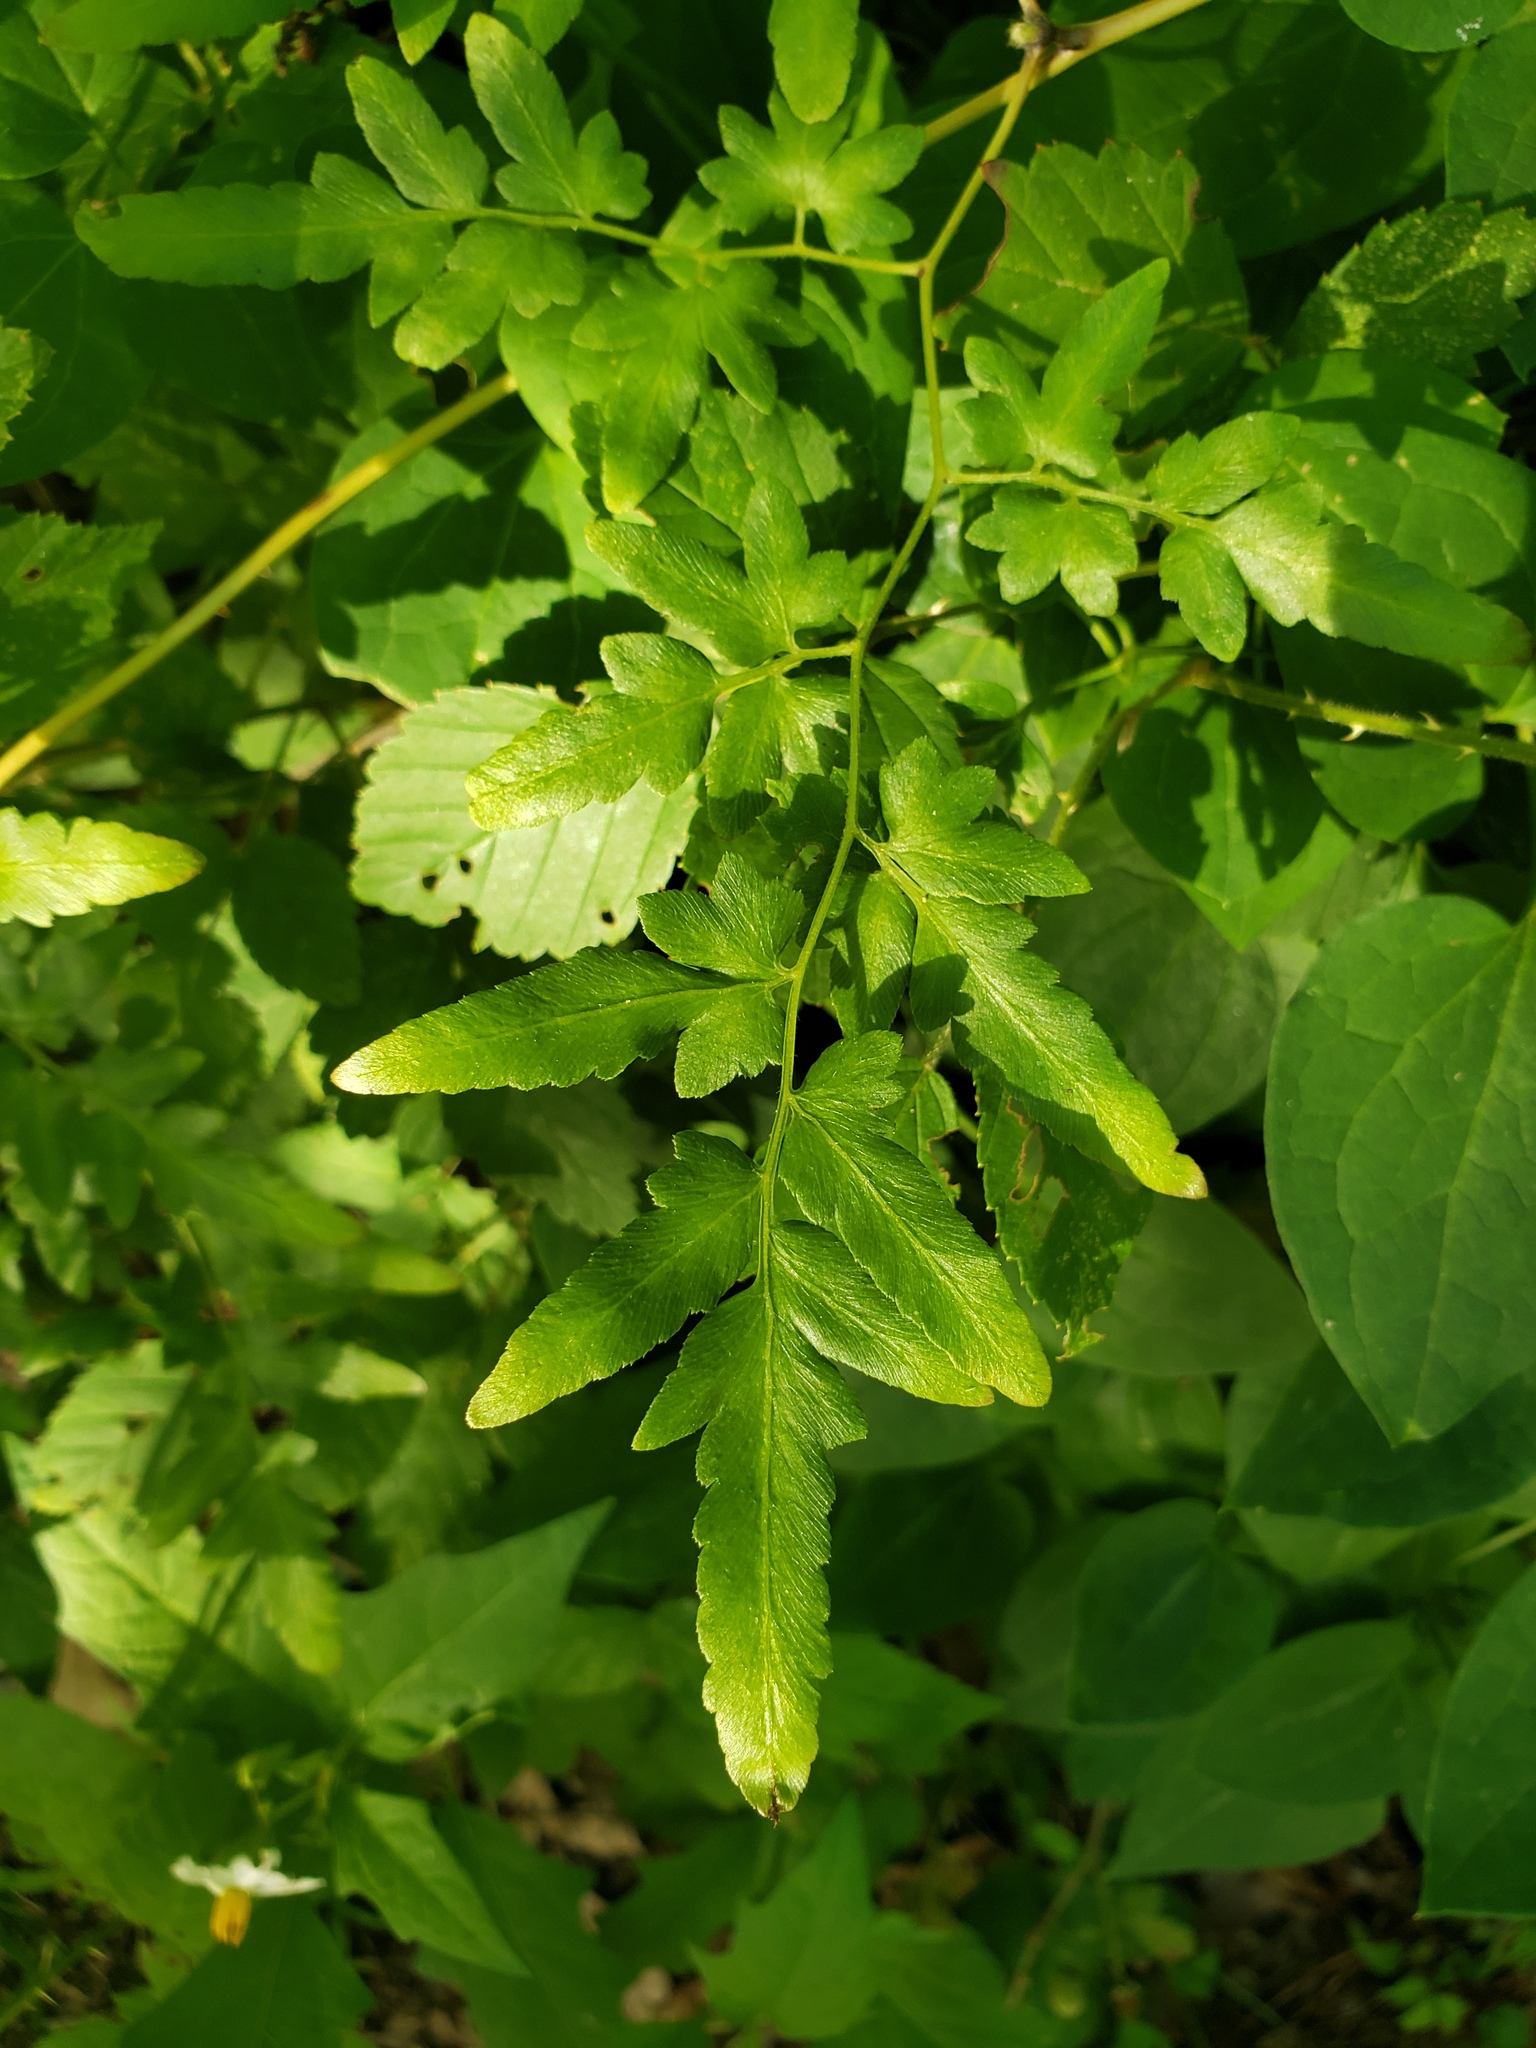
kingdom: Plantae
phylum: Tracheophyta
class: Polypodiopsida
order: Schizaeales
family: Lygodiaceae
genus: Lygodium
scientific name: Lygodium japonicum
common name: Japanese climbing fern
